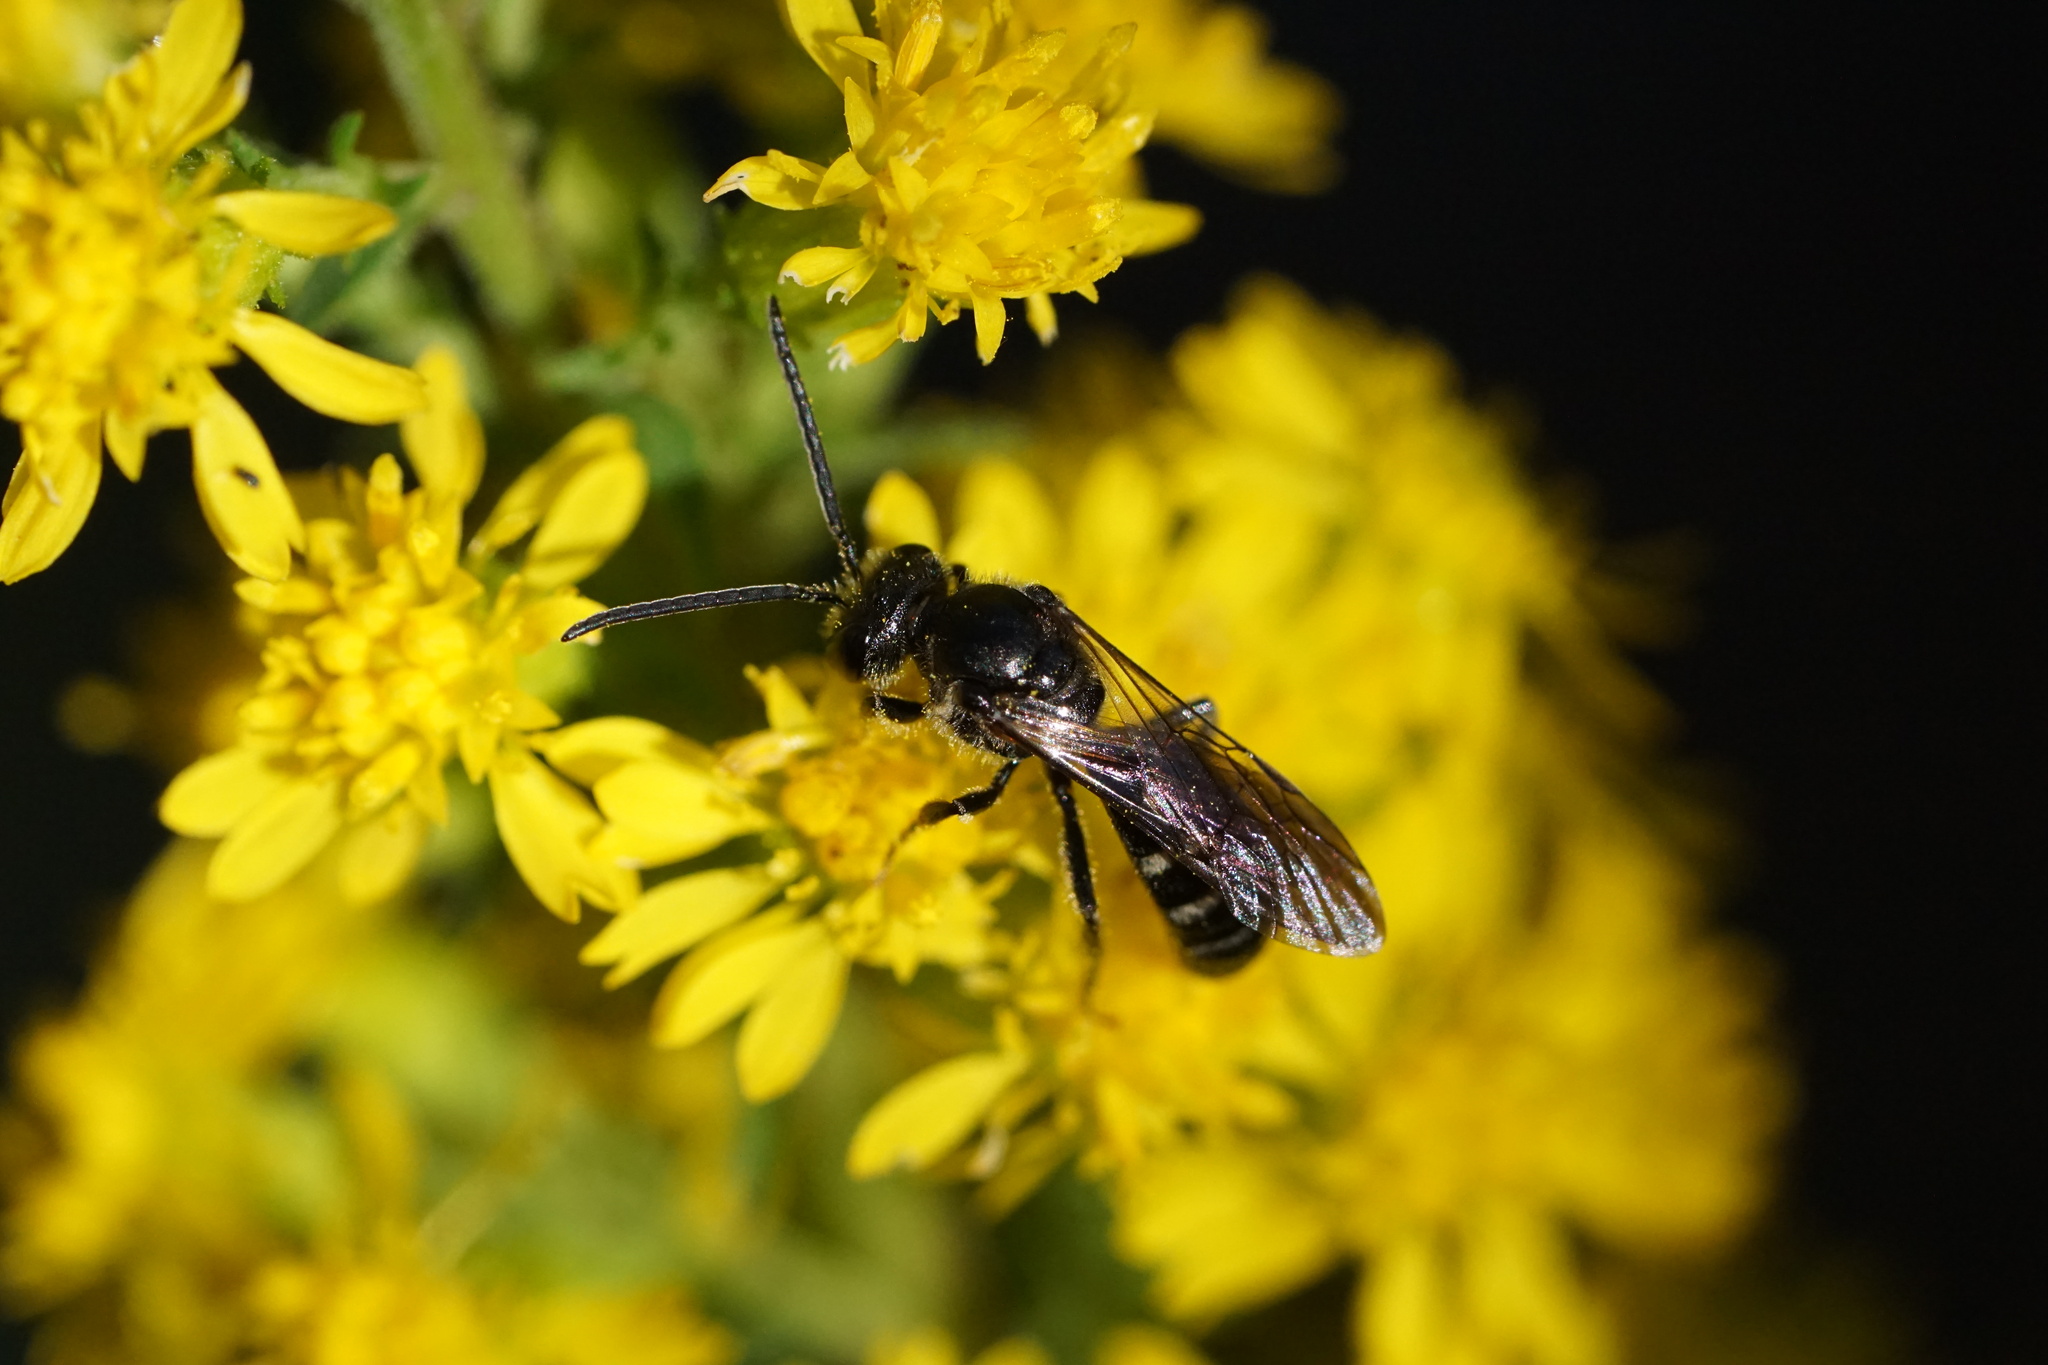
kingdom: Animalia
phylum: Arthropoda
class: Insecta
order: Hymenoptera
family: Halictidae
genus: Lasioglossum
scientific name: Lasioglossum fuscipenne
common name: Brown-winged sweat bee
